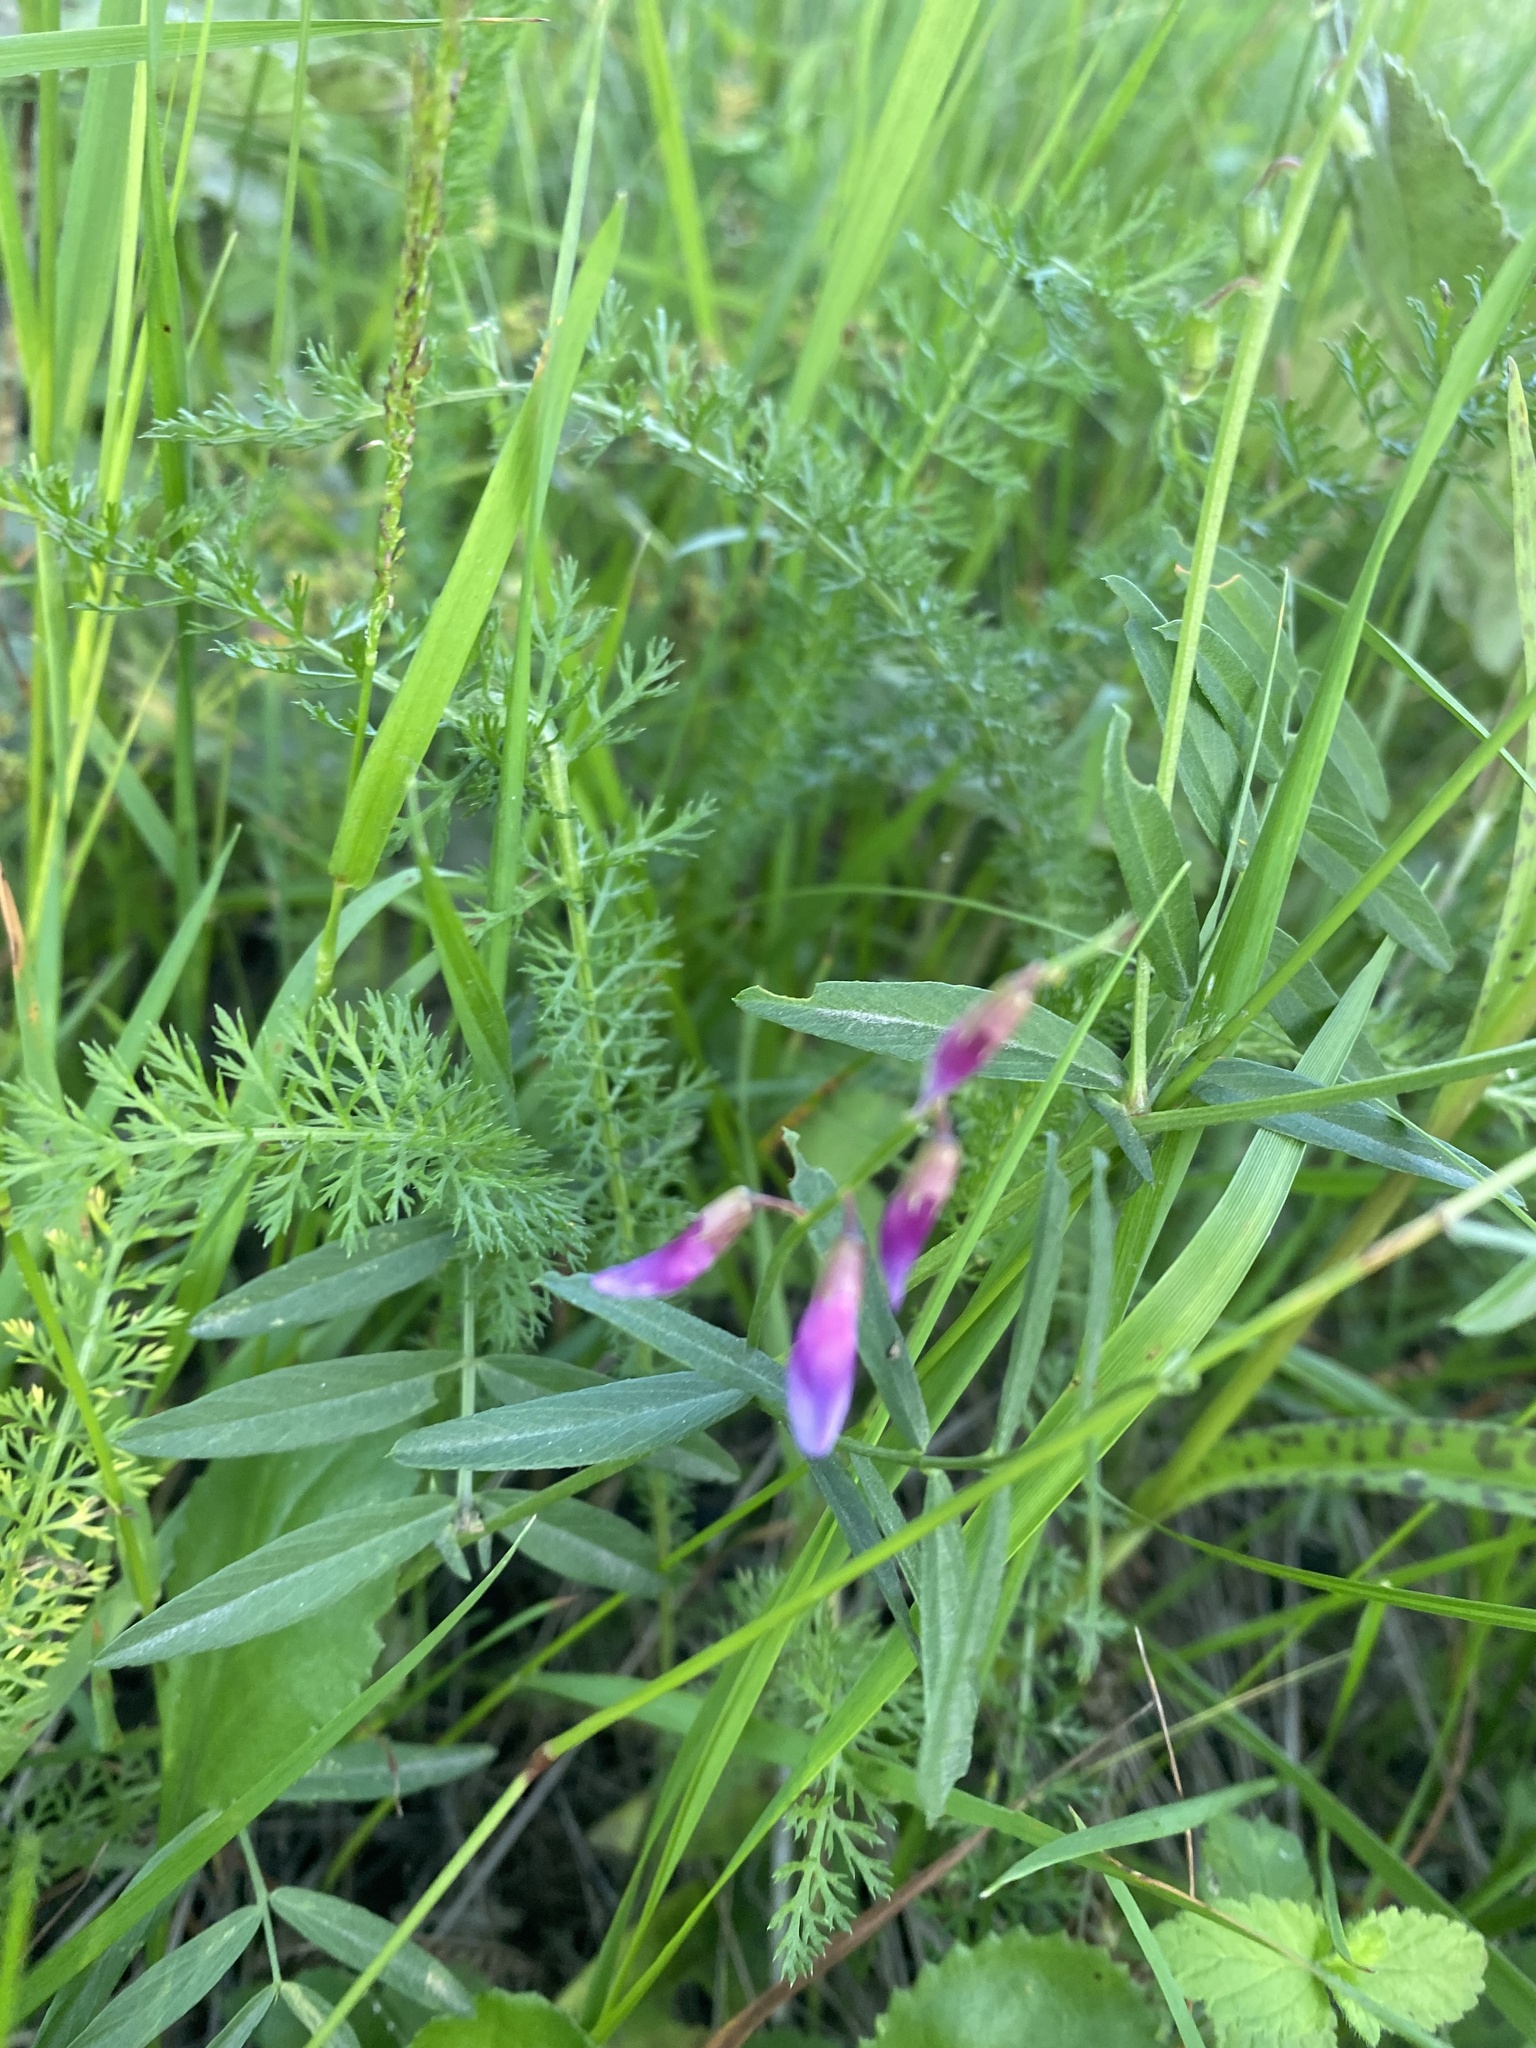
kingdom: Plantae
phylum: Tracheophyta
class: Magnoliopsida
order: Fabales
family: Fabaceae
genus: Lathyrus
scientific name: Lathyrus palustris
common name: Marsh pea
